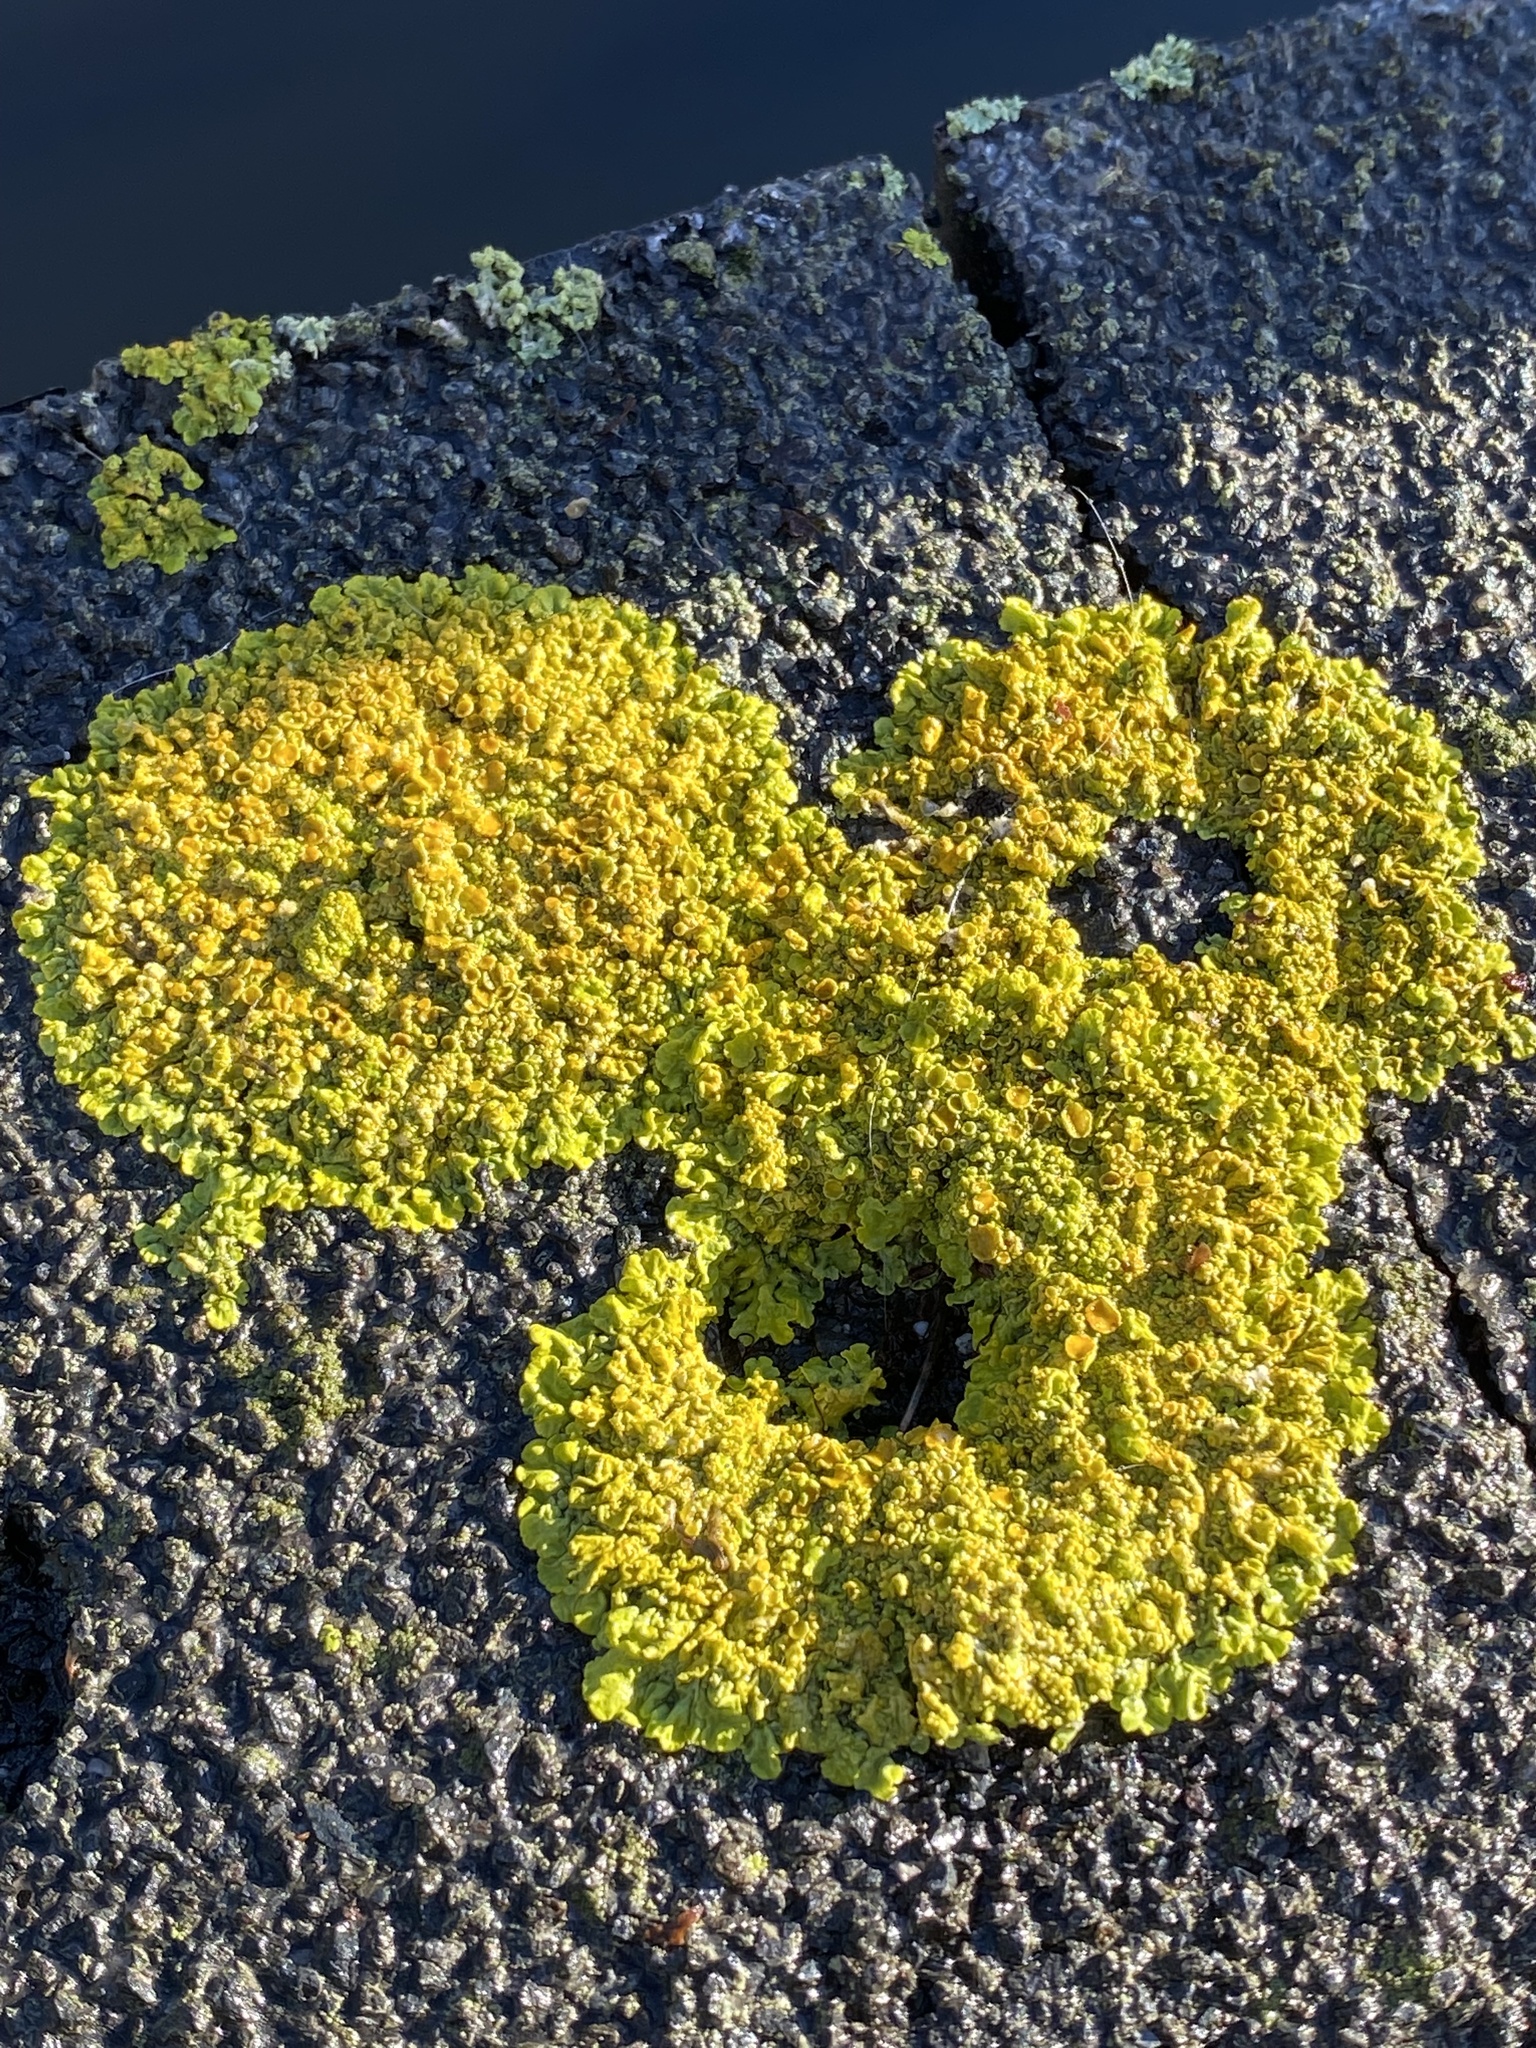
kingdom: Fungi
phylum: Ascomycota
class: Lecanoromycetes
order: Teloschistales
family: Teloschistaceae
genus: Xanthoria
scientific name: Xanthoria parietina
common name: Common orange lichen
